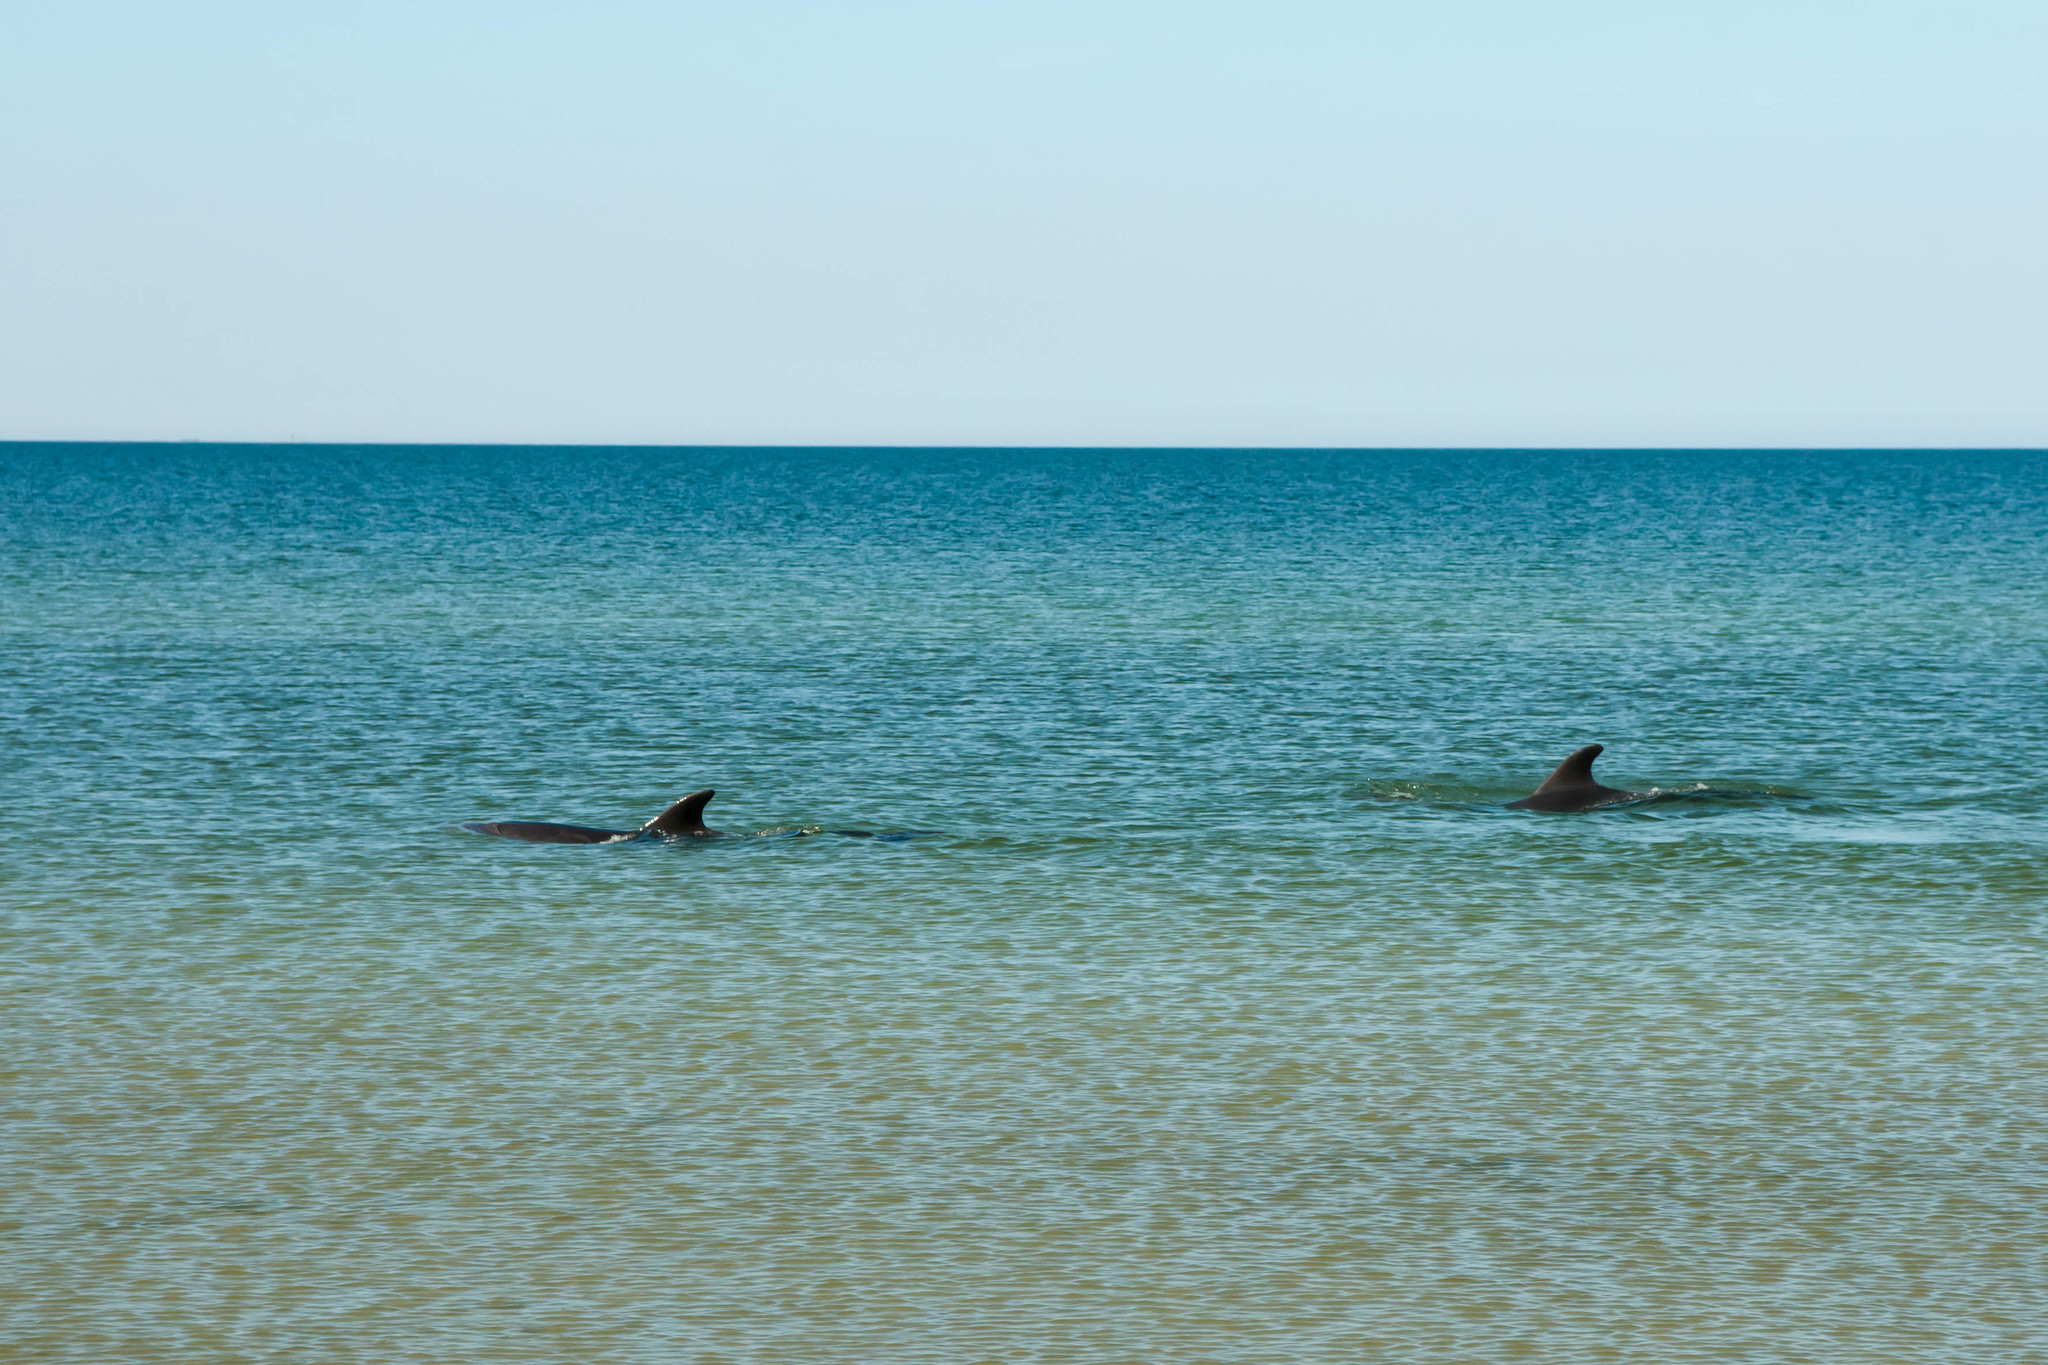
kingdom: Animalia
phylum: Chordata
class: Mammalia
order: Cetacea
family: Delphinidae
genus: Tursiops
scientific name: Tursiops truncatus
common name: Bottlenose dolphin
